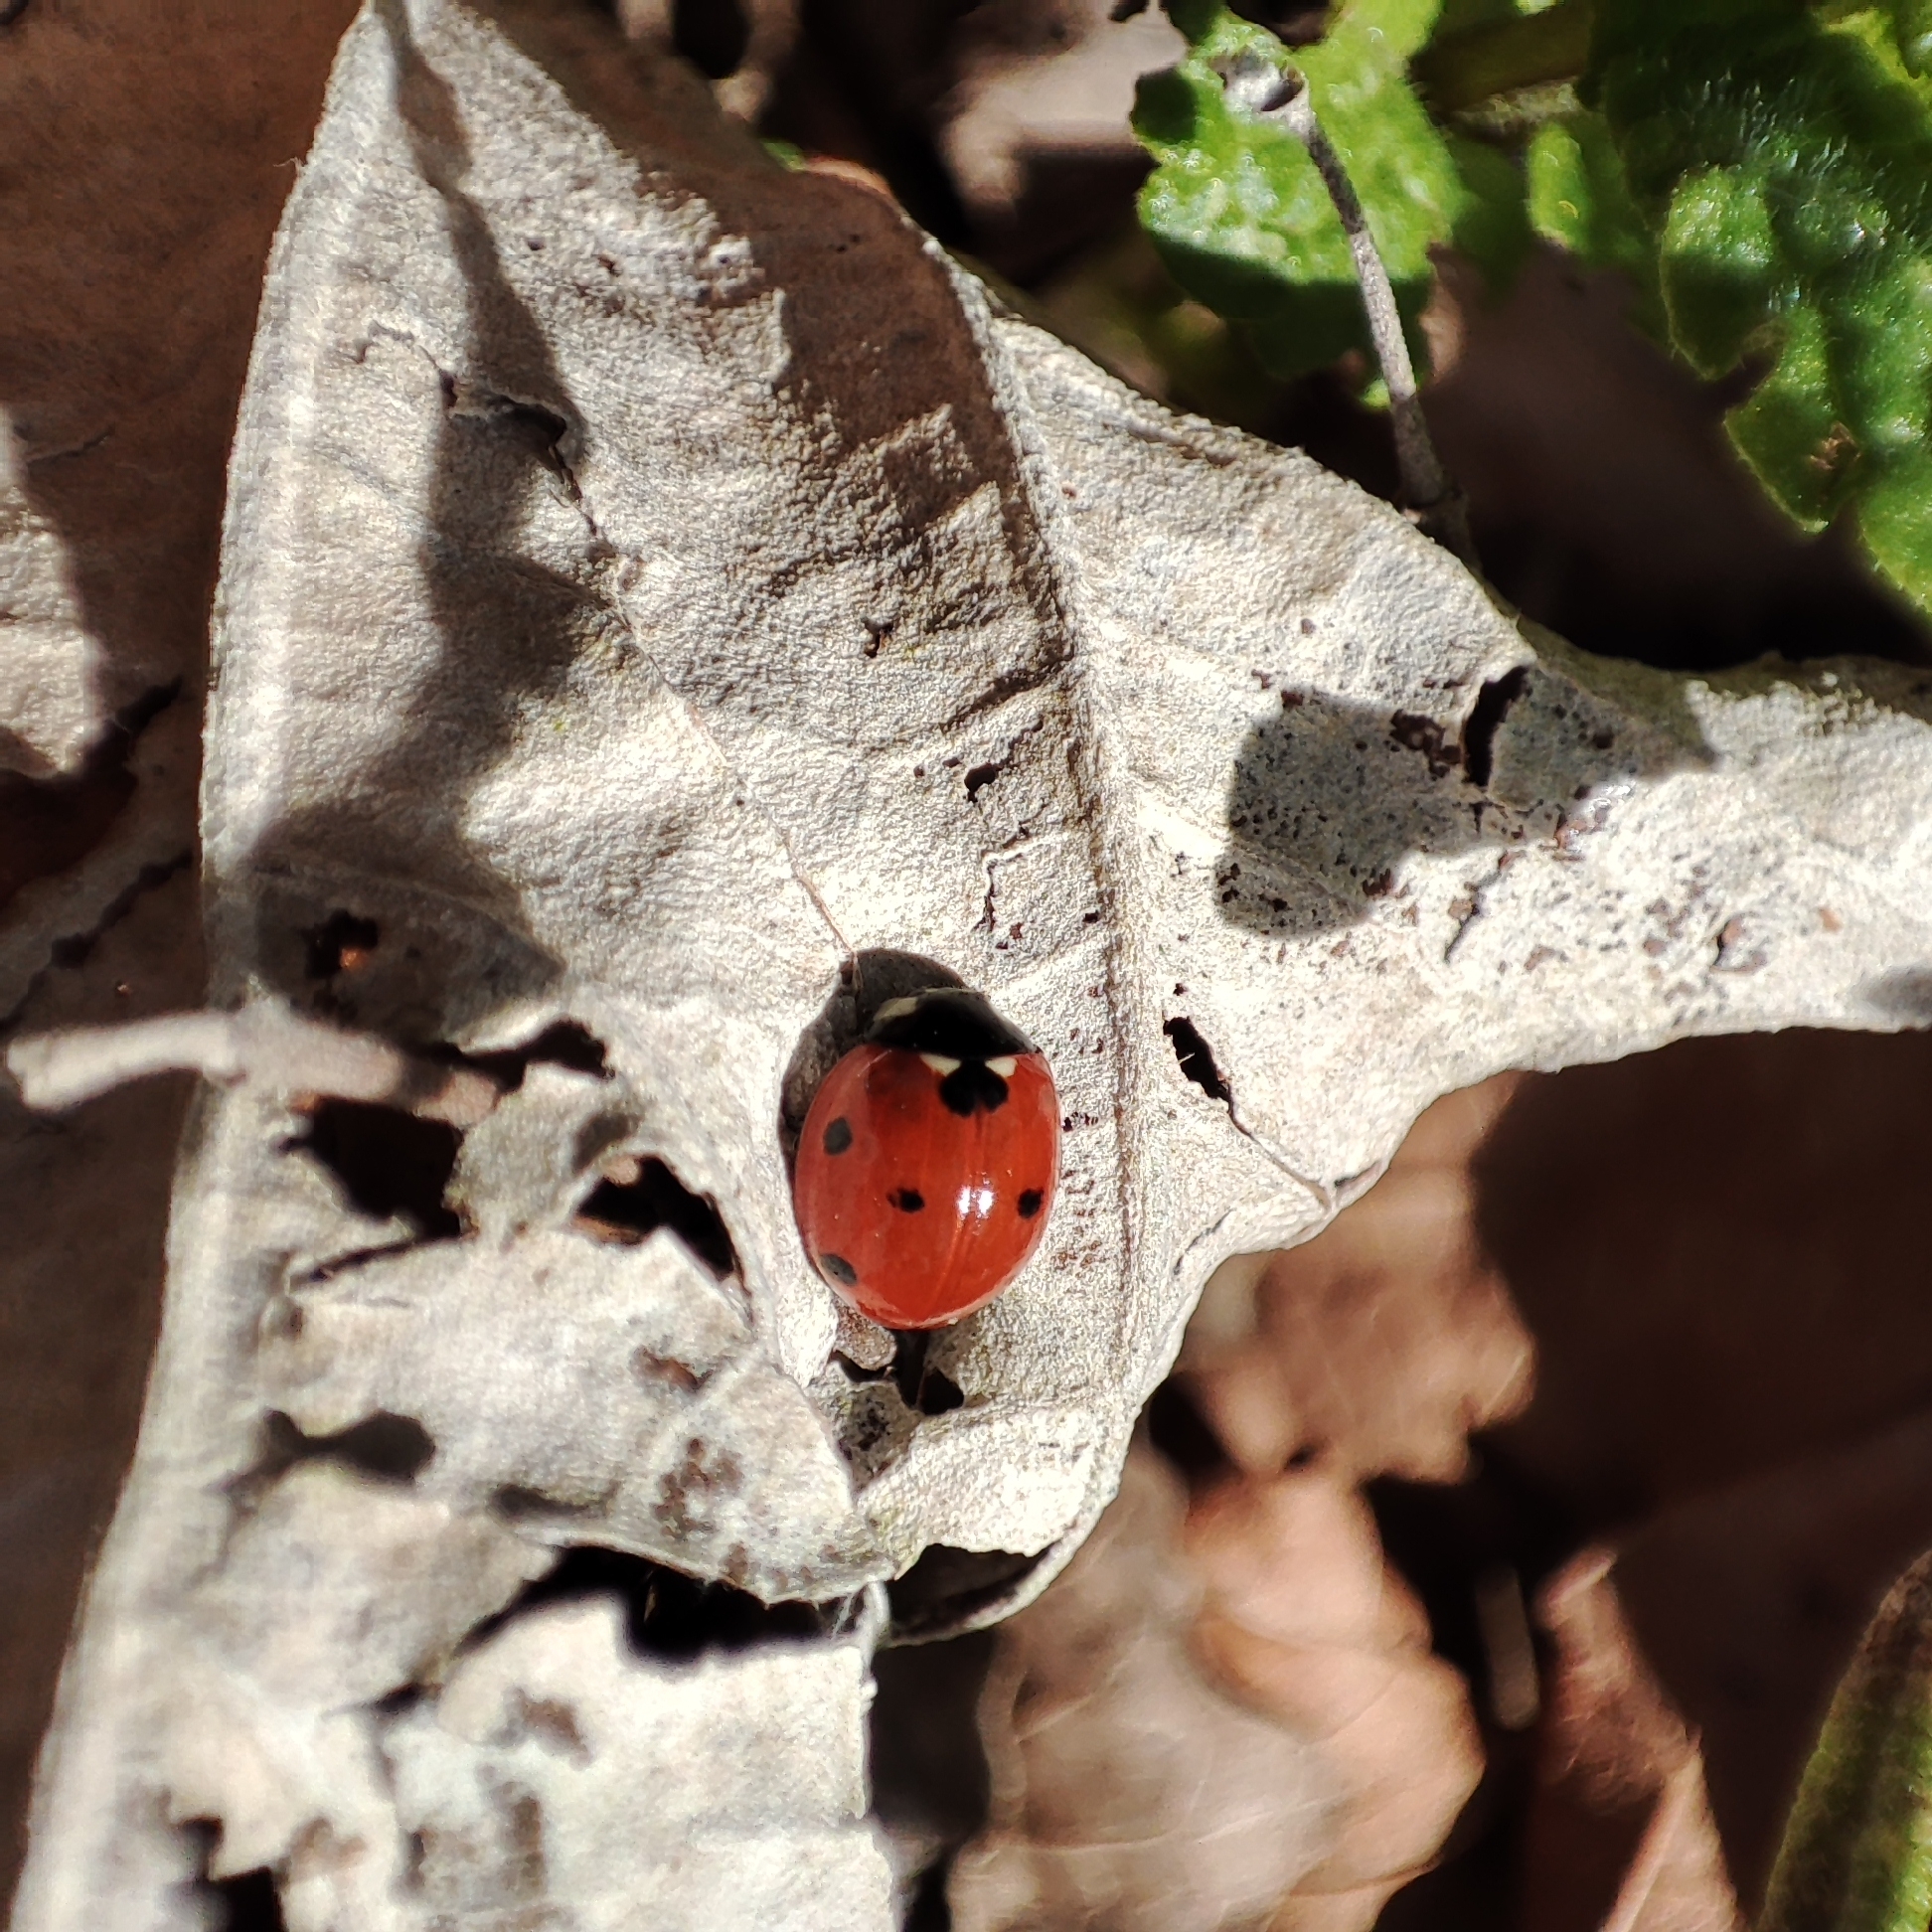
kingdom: Animalia
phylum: Arthropoda
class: Insecta
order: Coleoptera
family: Coccinellidae
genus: Coccinella
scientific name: Coccinella septempunctata
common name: Sevenspotted lady beetle
